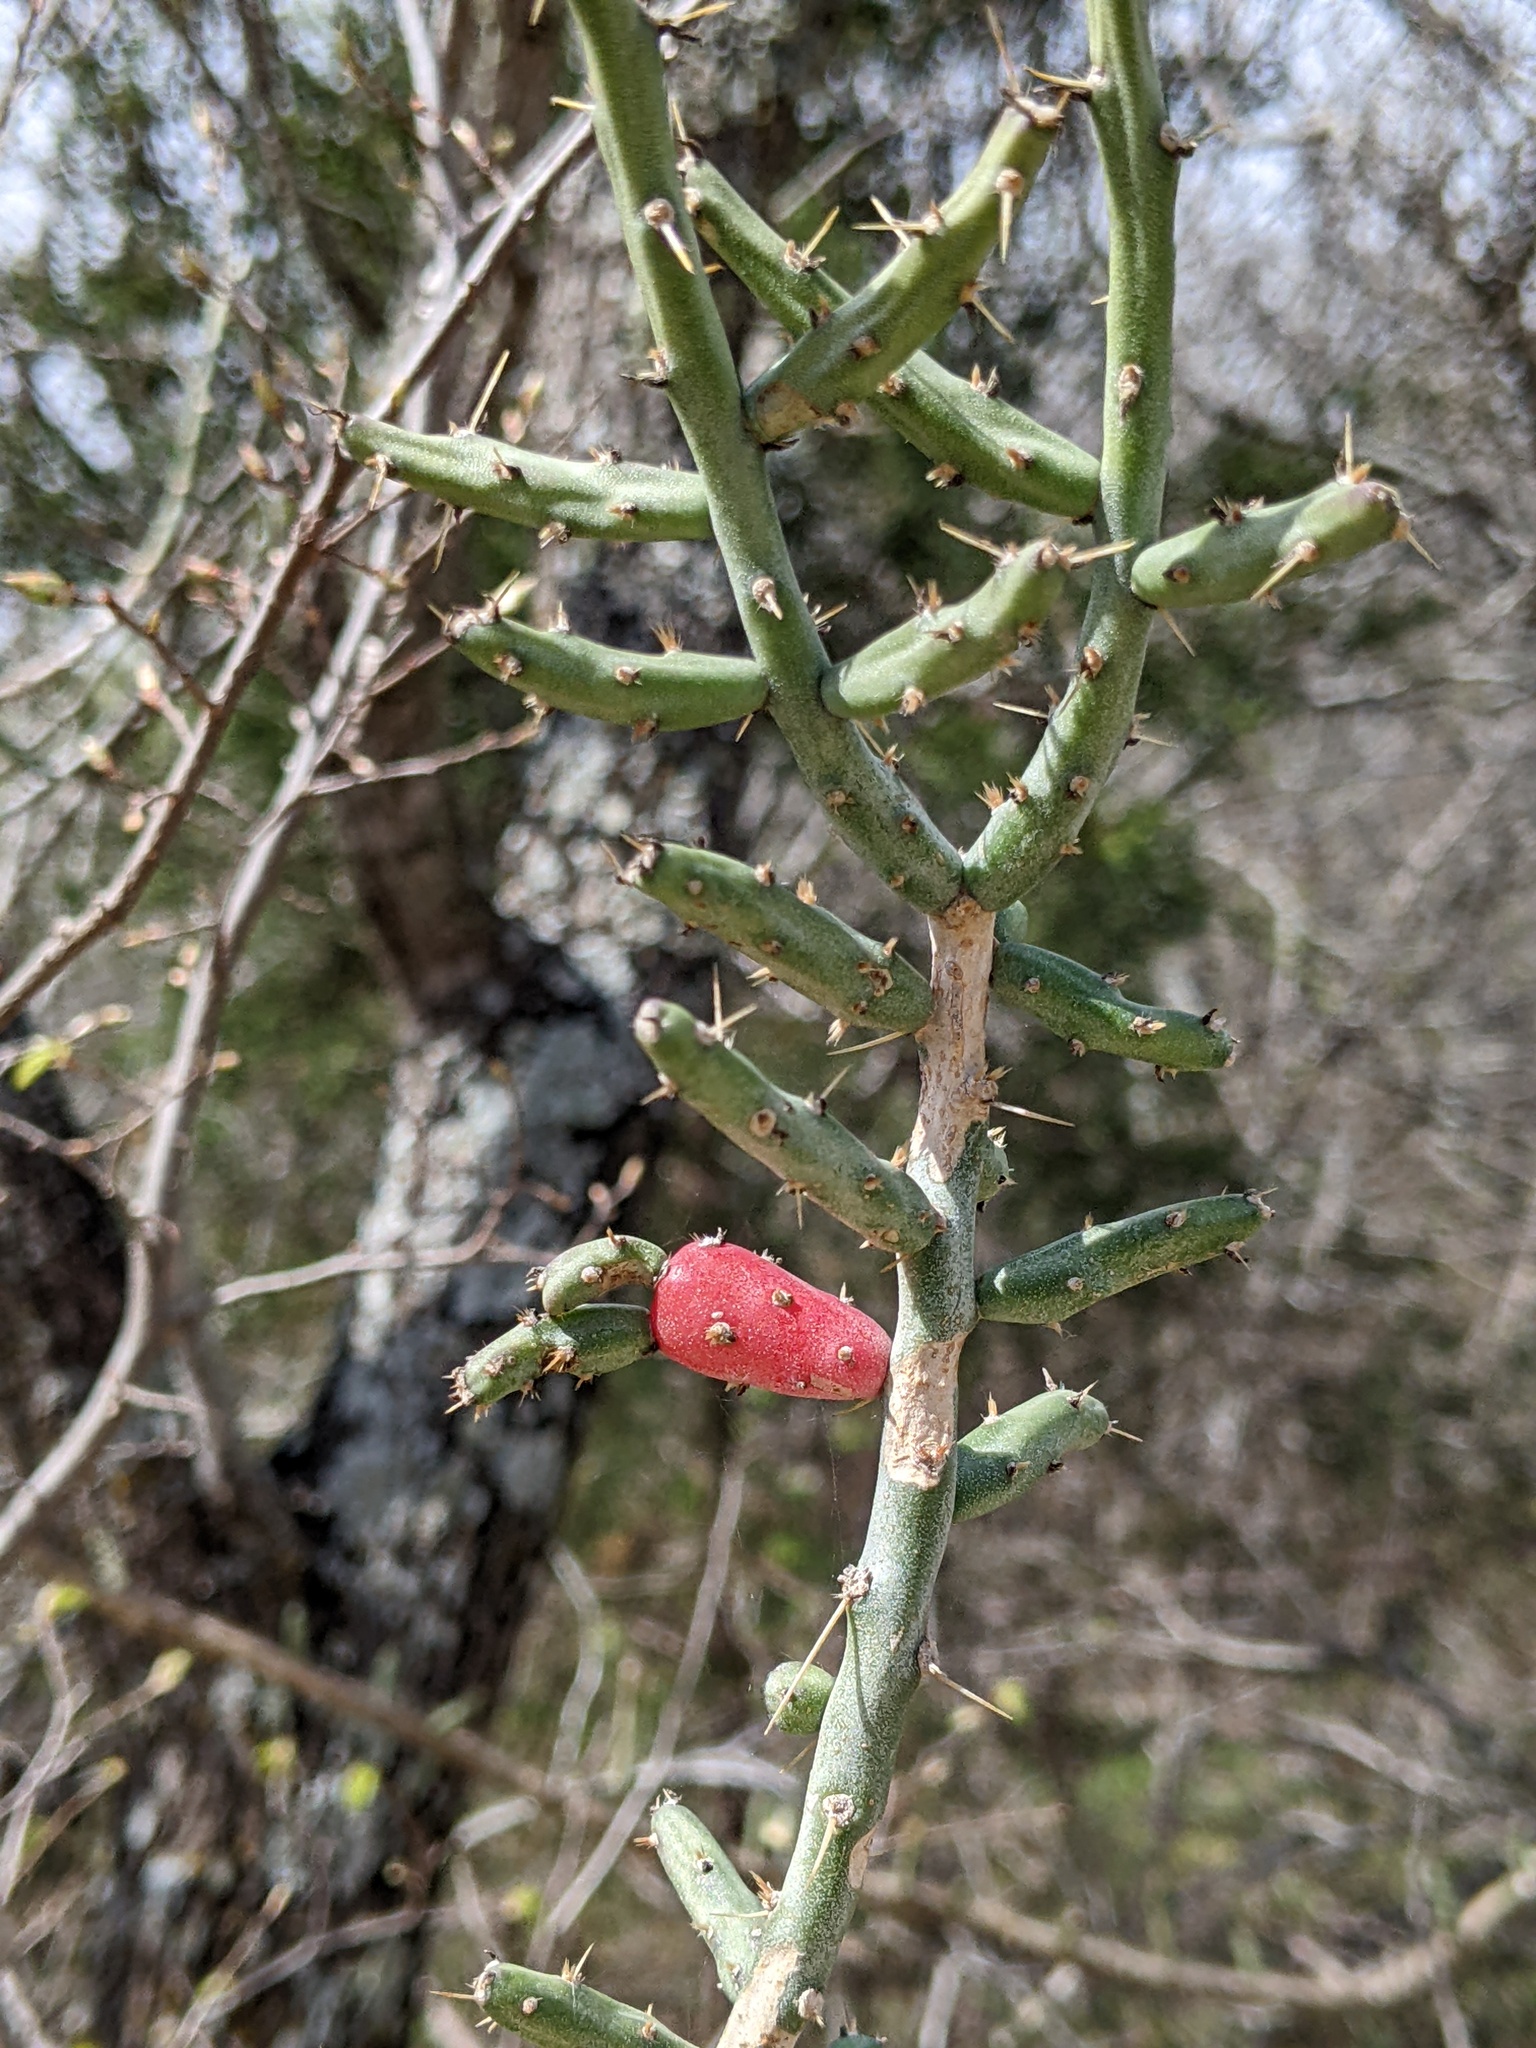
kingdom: Plantae
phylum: Tracheophyta
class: Magnoliopsida
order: Caryophyllales
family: Cactaceae
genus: Cylindropuntia
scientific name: Cylindropuntia leptocaulis
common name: Christmas cactus
